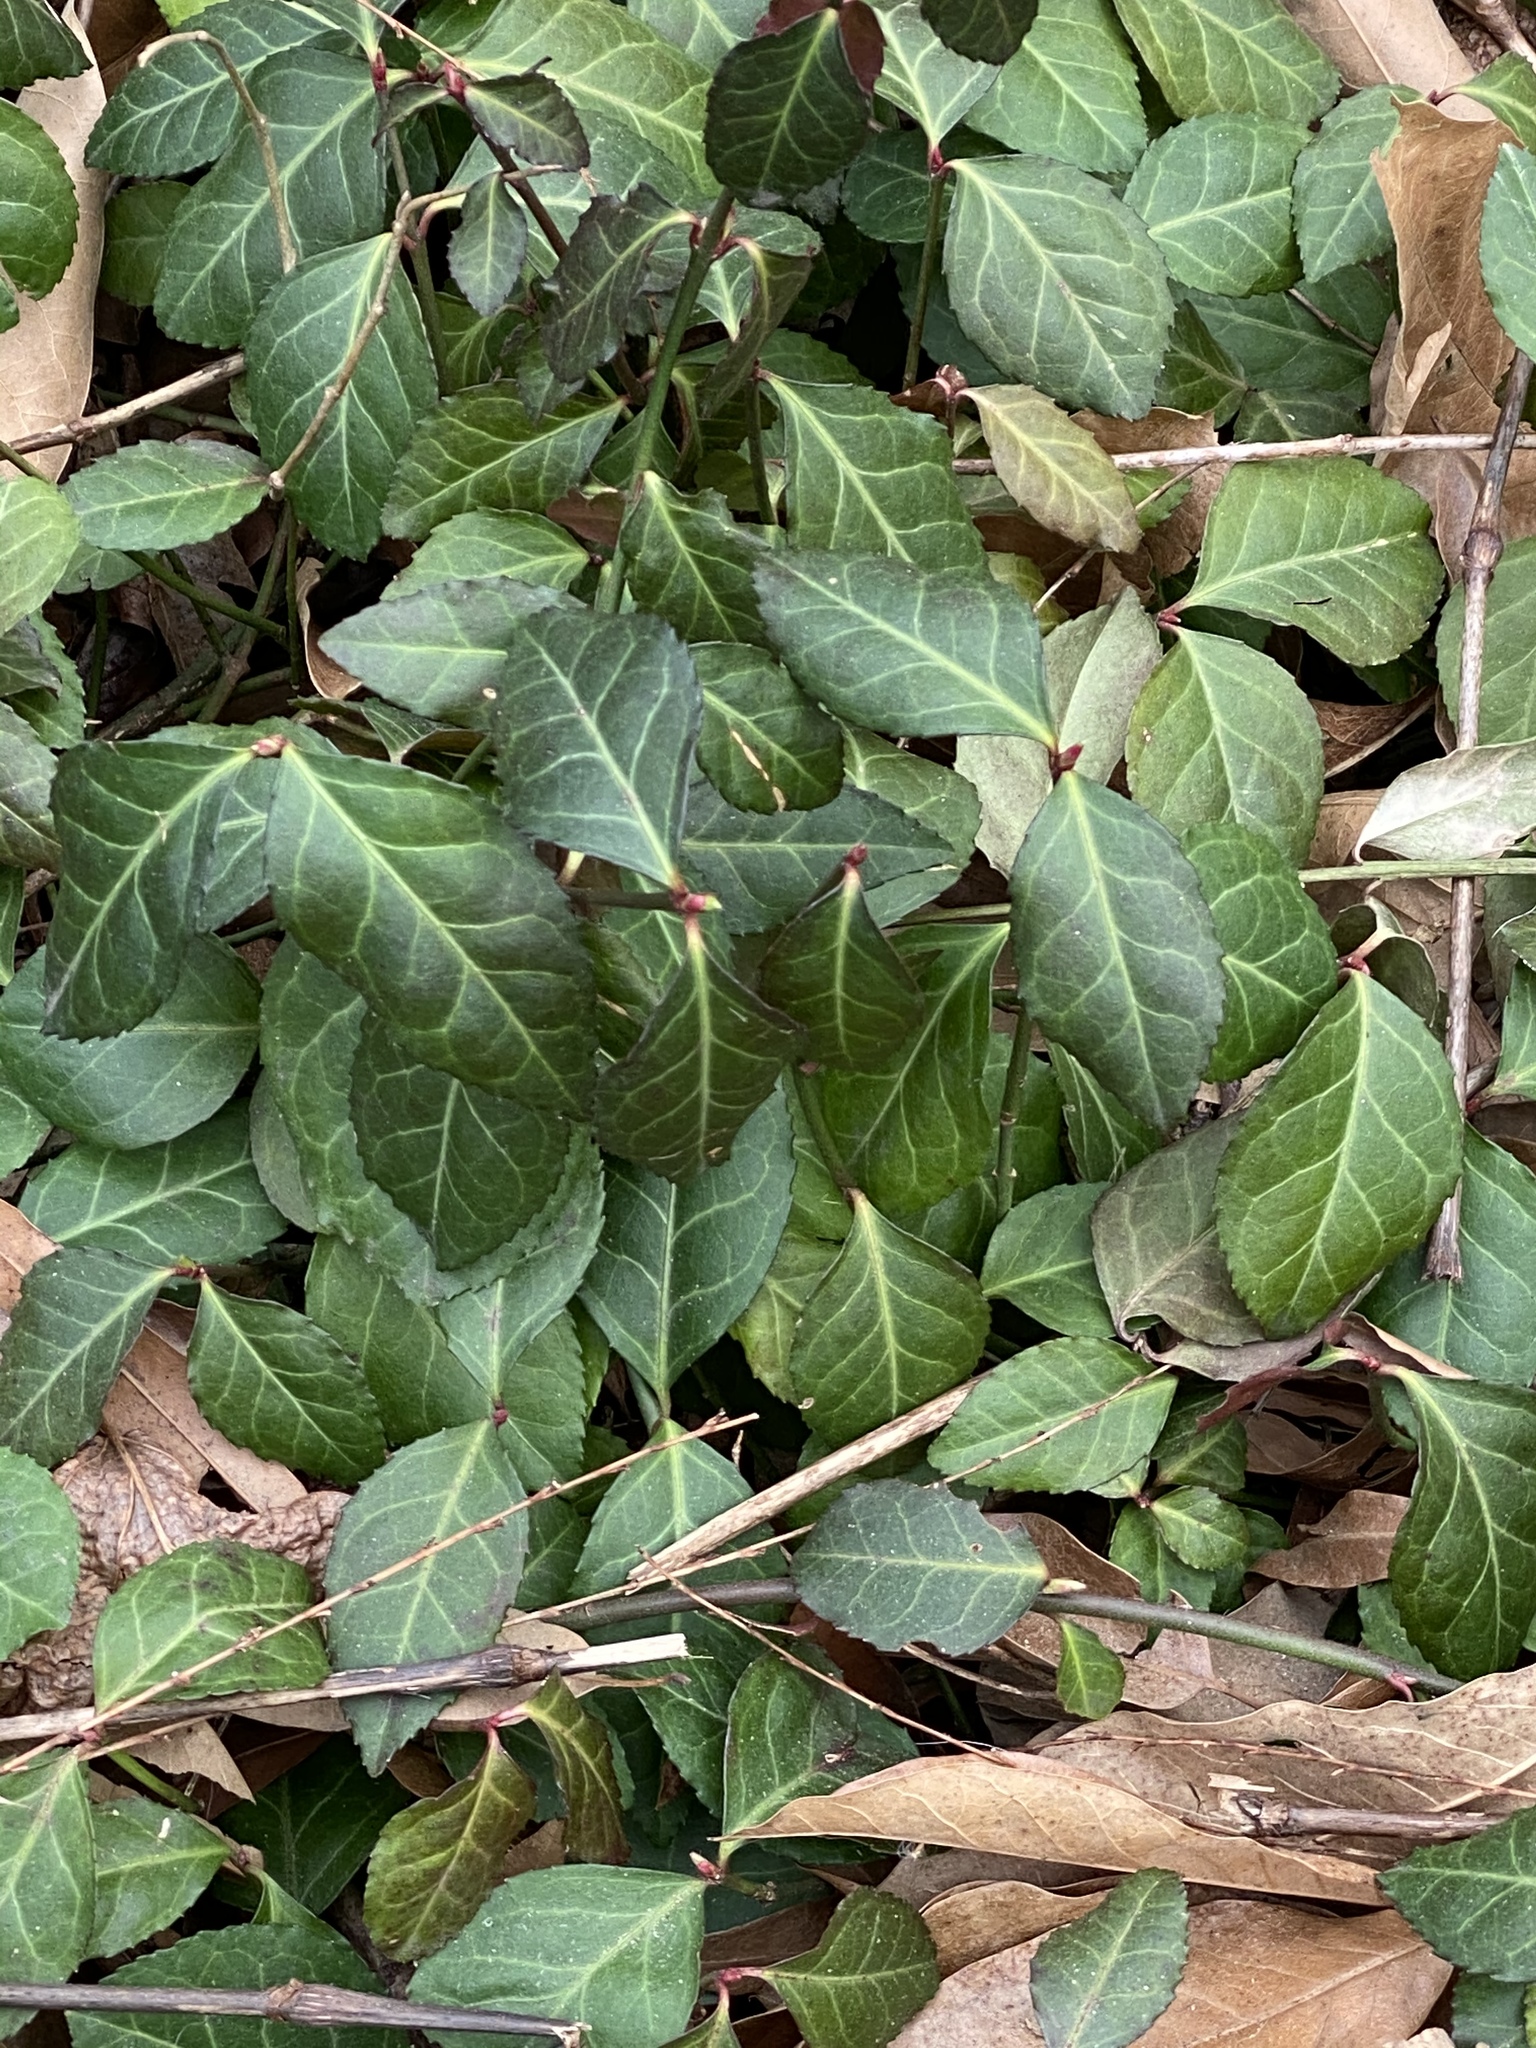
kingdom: Plantae
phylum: Tracheophyta
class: Magnoliopsida
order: Celastrales
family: Celastraceae
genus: Euonymus
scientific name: Euonymus fortunei
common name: Climbing euonymus
